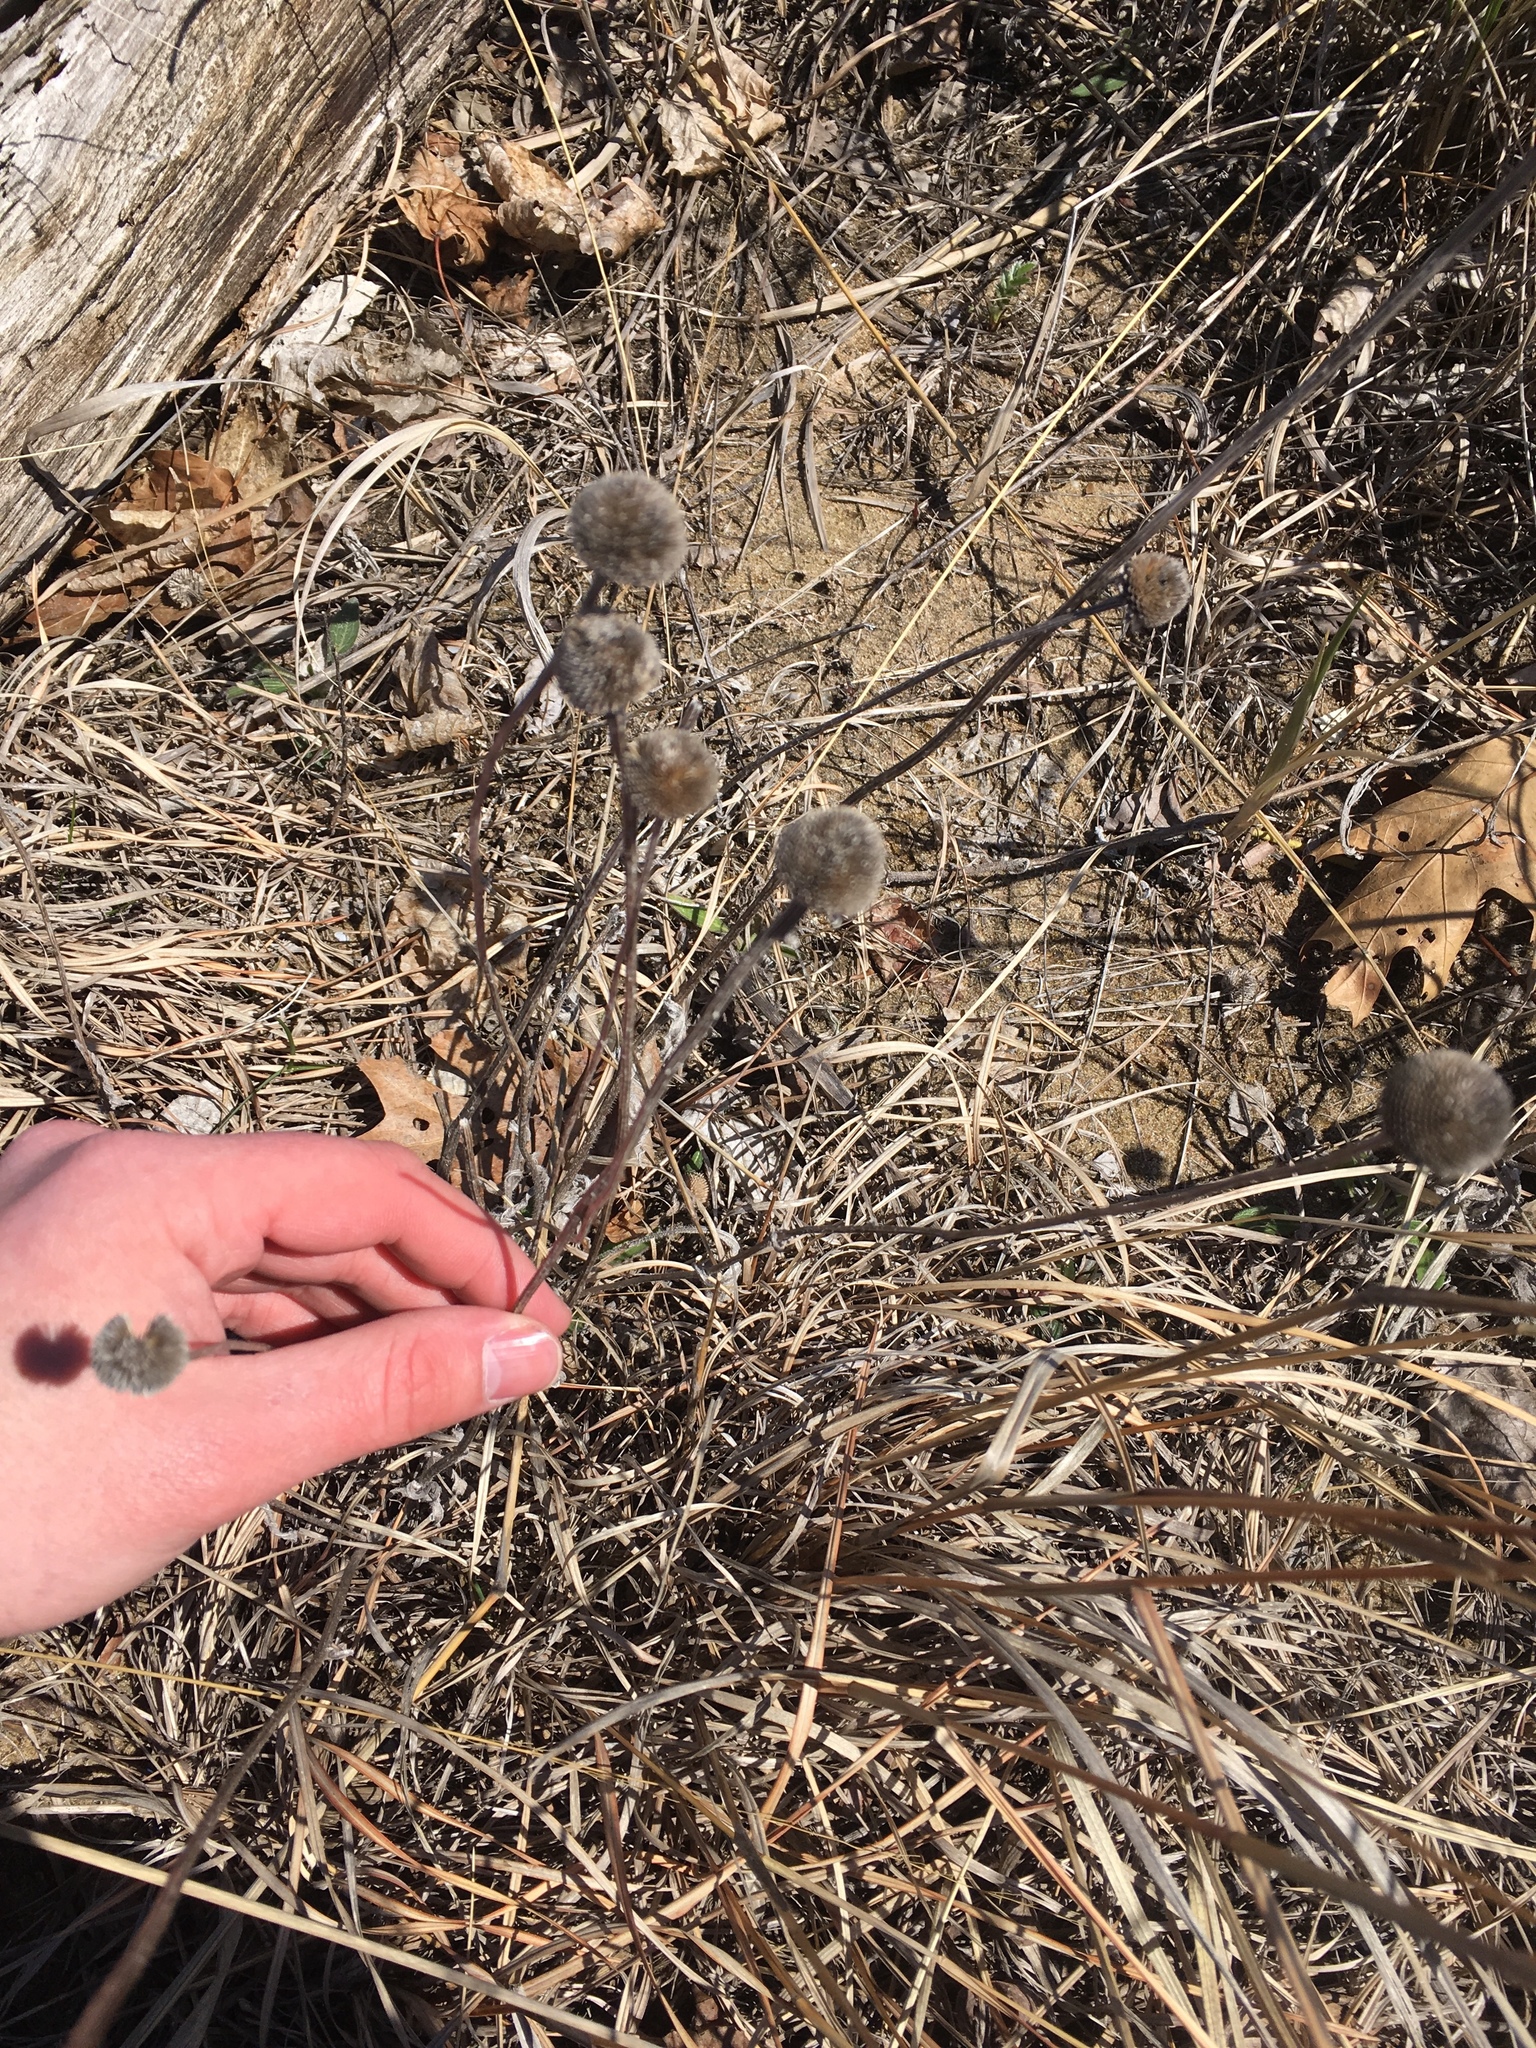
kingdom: Plantae
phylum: Tracheophyta
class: Magnoliopsida
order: Asterales
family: Asteraceae
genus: Rudbeckia
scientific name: Rudbeckia hirta
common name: Black-eyed-susan
